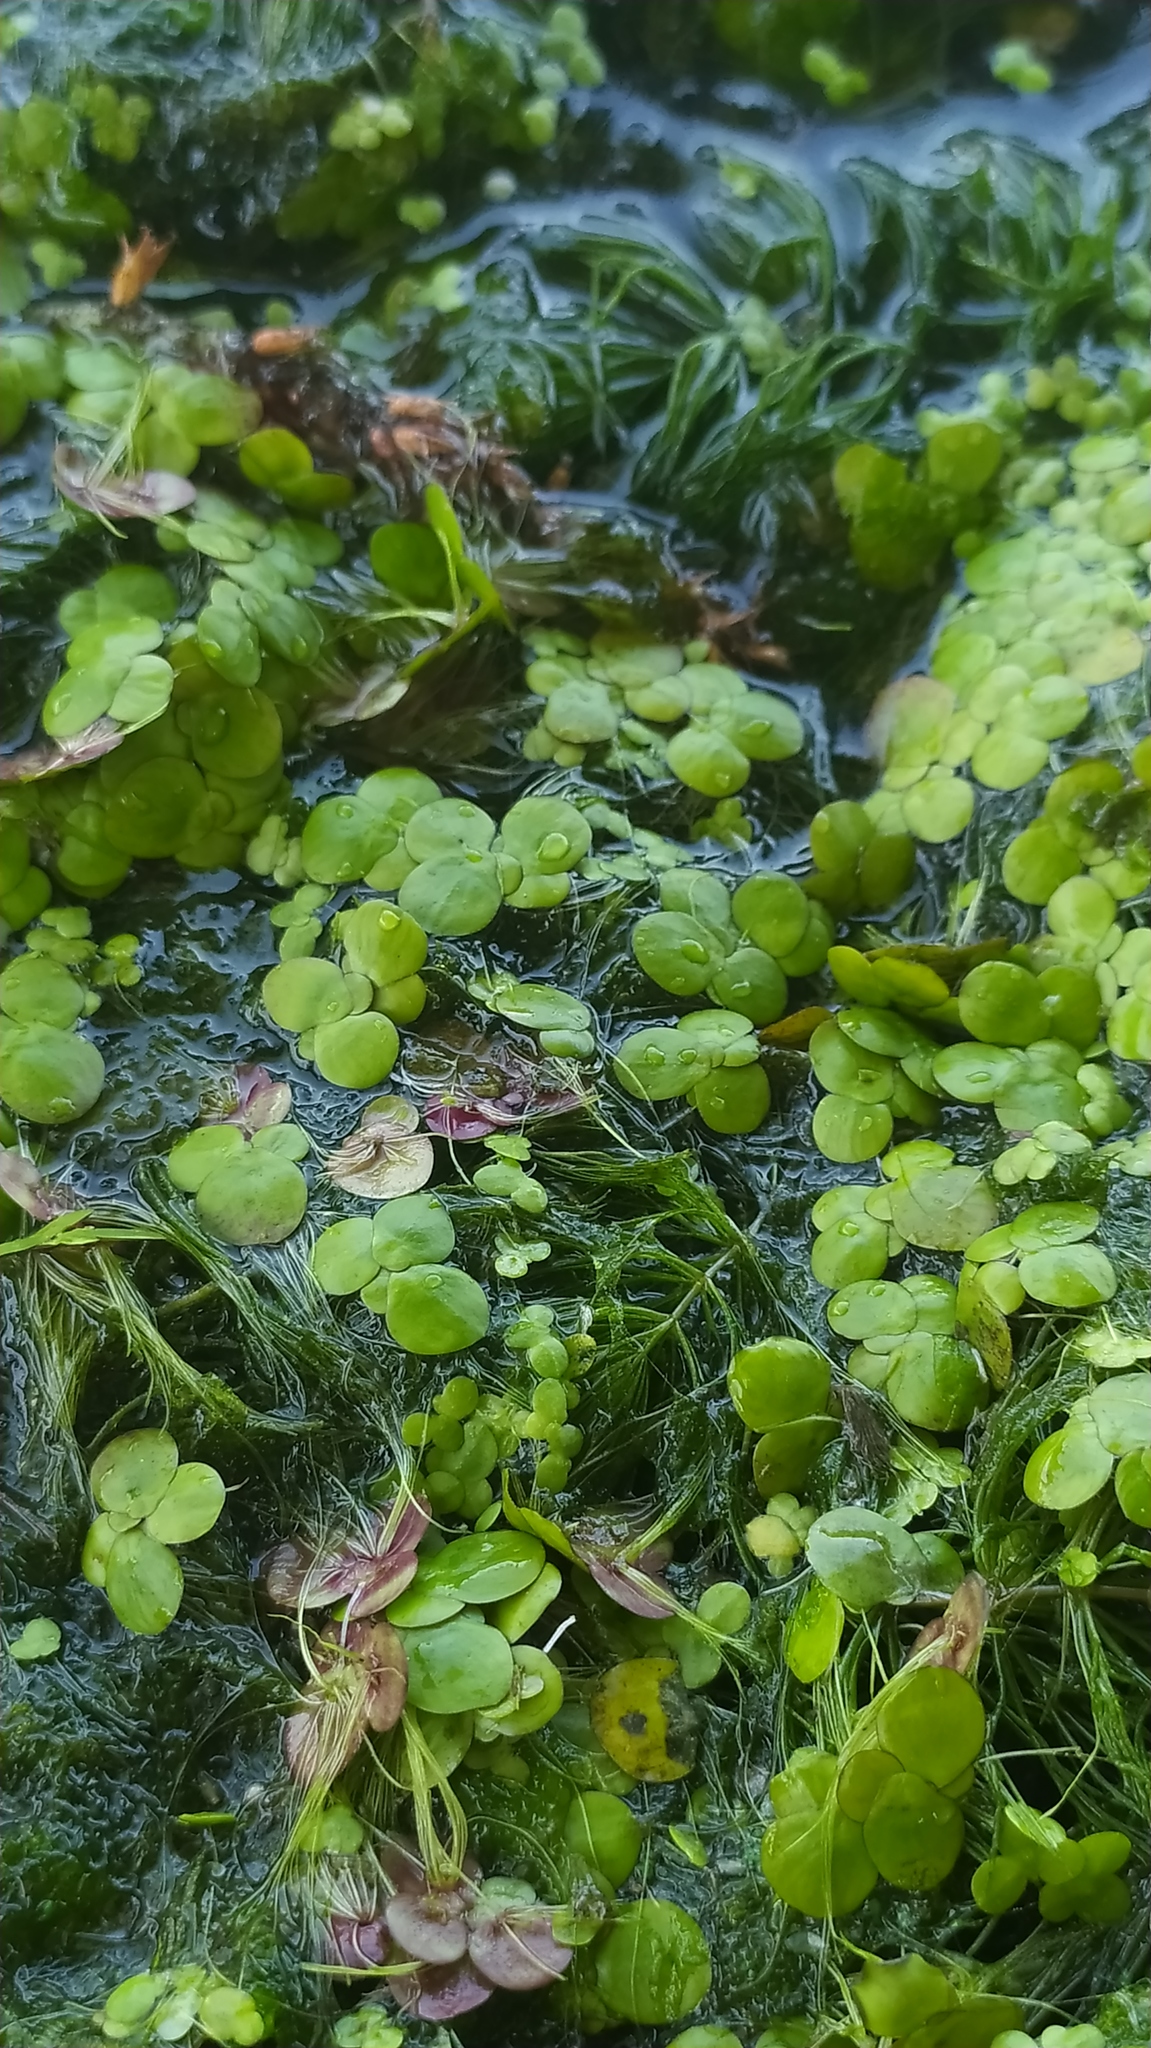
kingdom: Plantae
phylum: Tracheophyta
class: Liliopsida
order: Alismatales
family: Araceae
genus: Spirodela
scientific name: Spirodela polyrhiza
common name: Great duckweed
